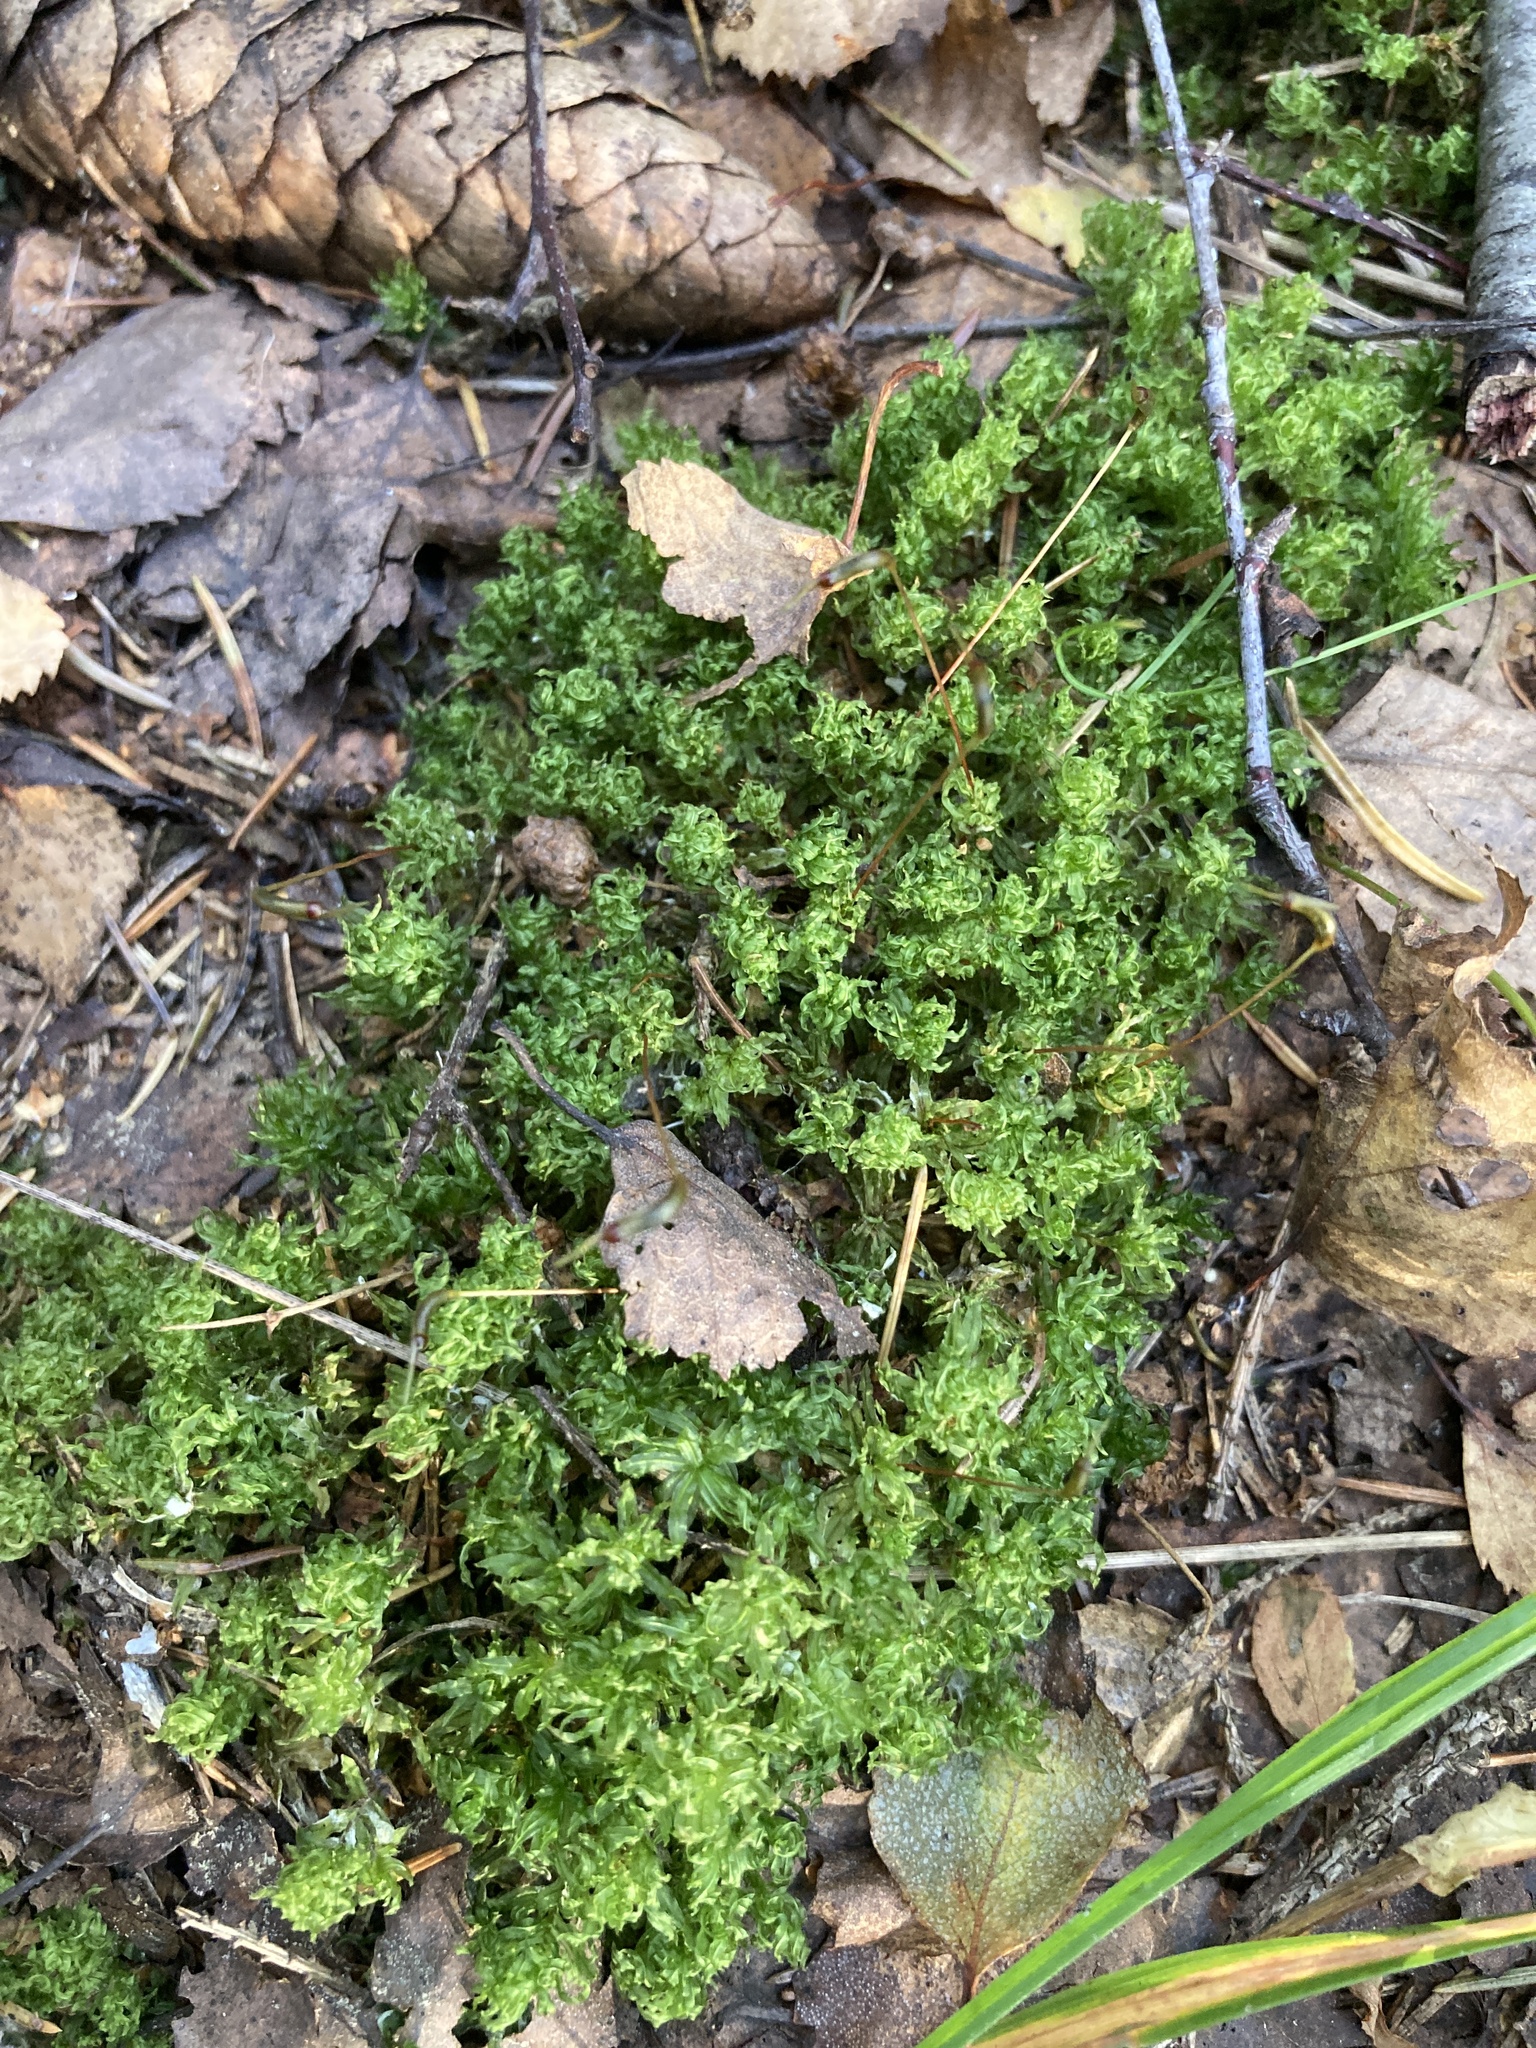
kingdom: Plantae
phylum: Bryophyta
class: Bryopsida
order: Bryales
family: Mniaceae
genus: Plagiomnium
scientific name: Plagiomnium undulatum
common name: Hart's-tongue thyme-moss
